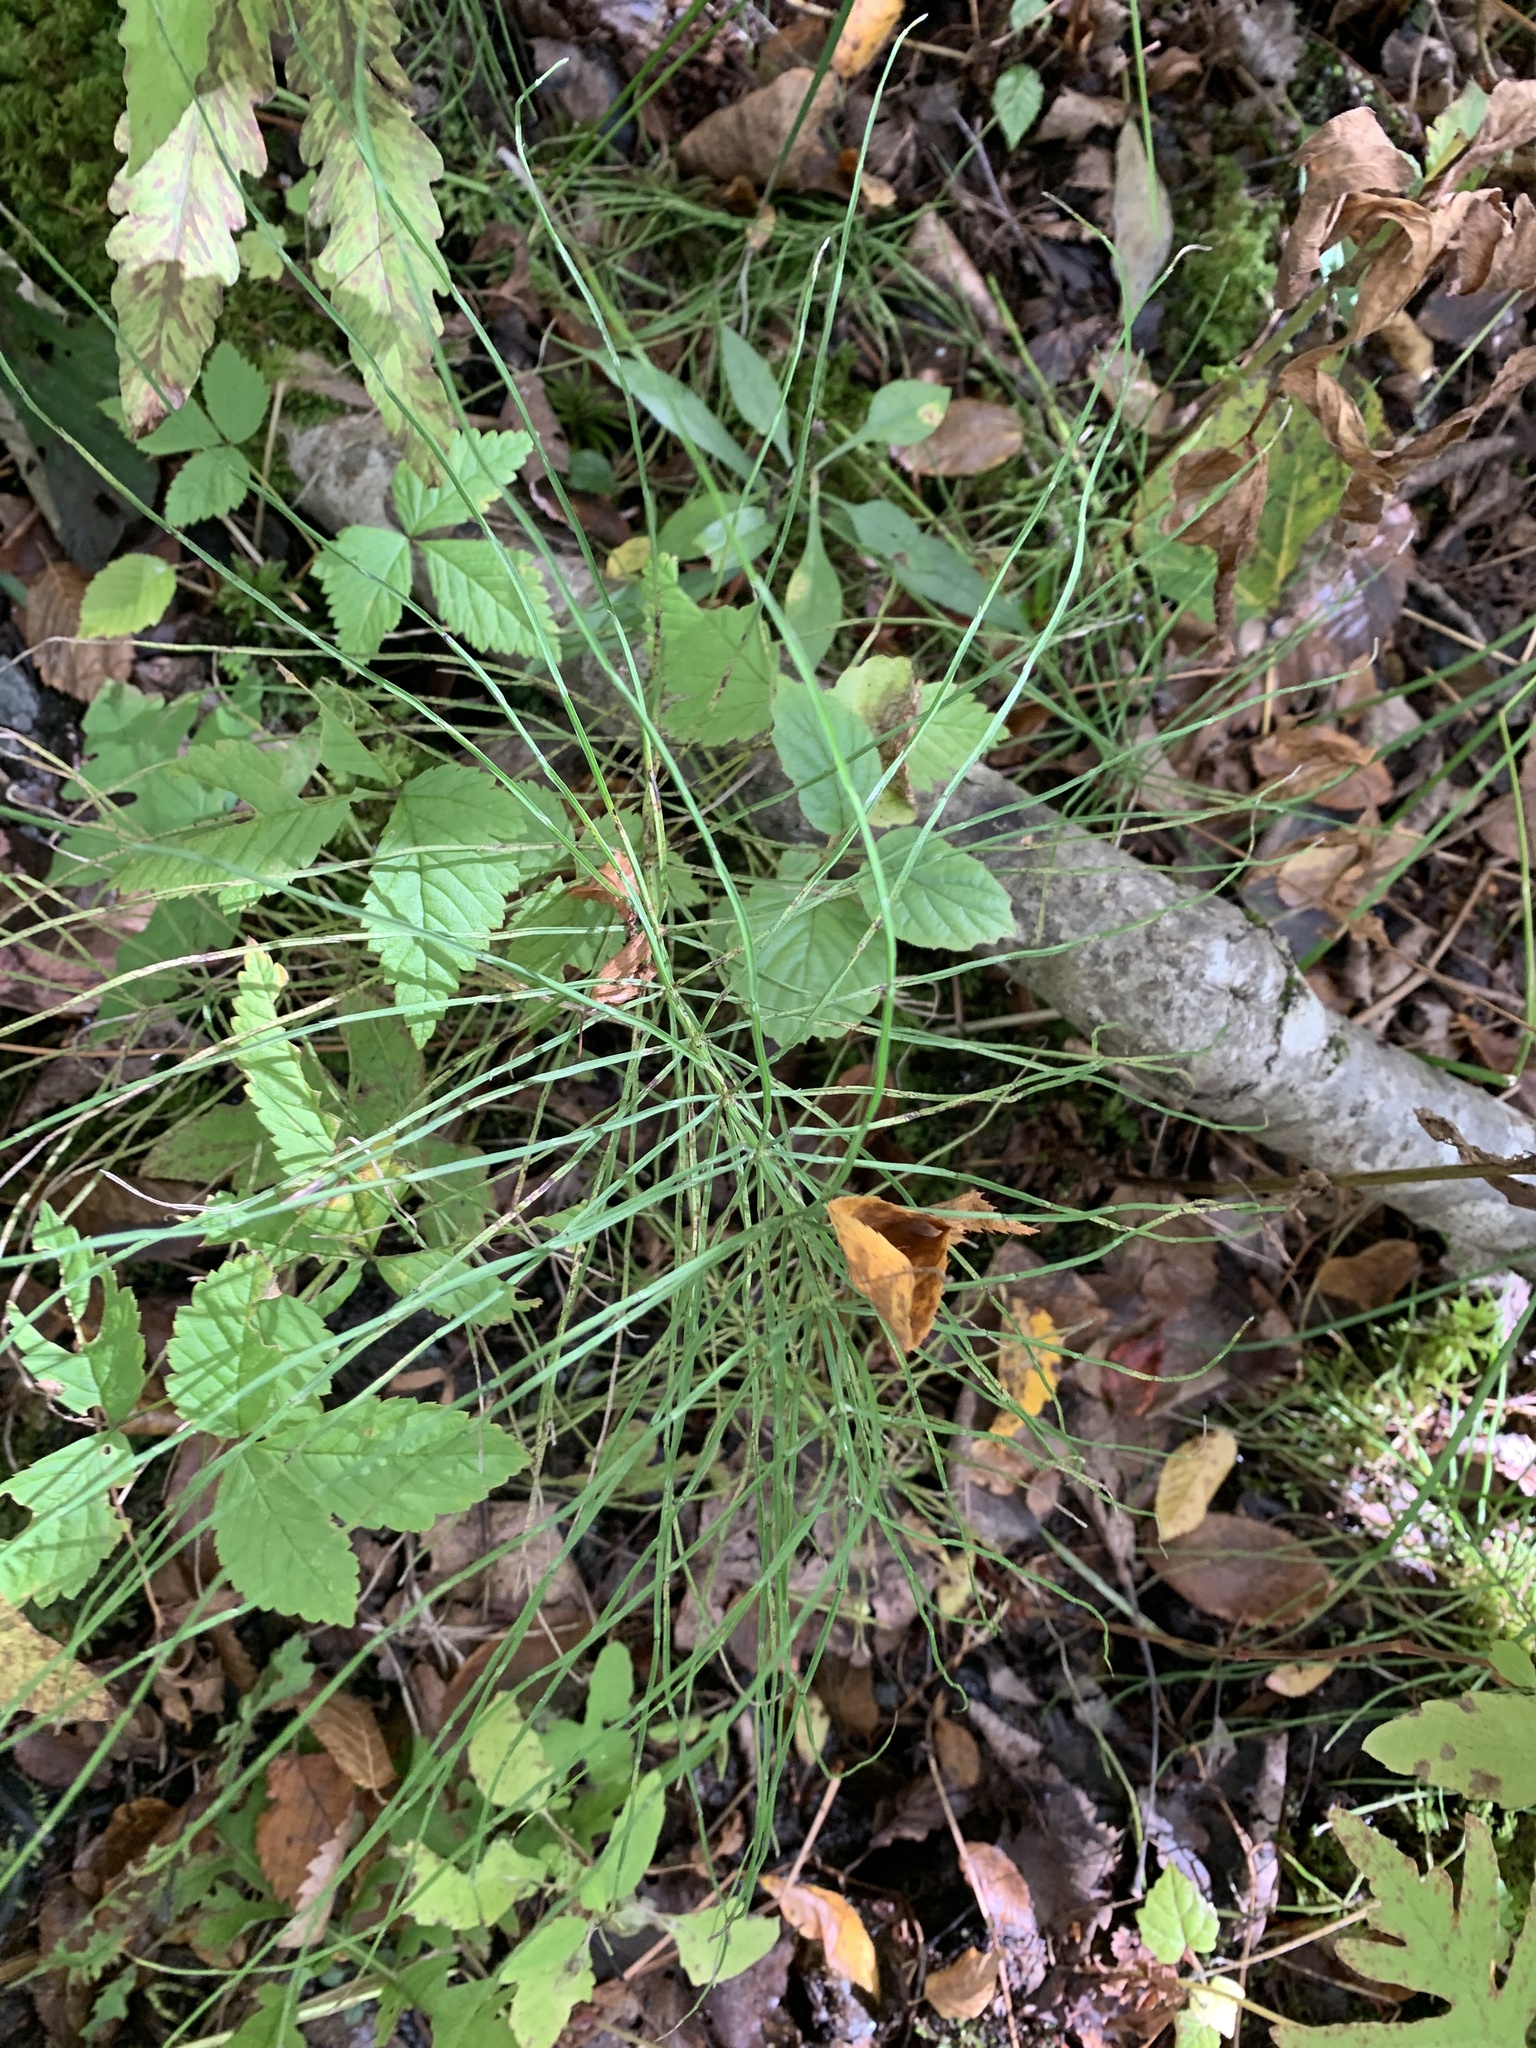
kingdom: Plantae
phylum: Tracheophyta
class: Polypodiopsida
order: Equisetales
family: Equisetaceae
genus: Equisetum
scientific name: Equisetum arvense
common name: Field horsetail
